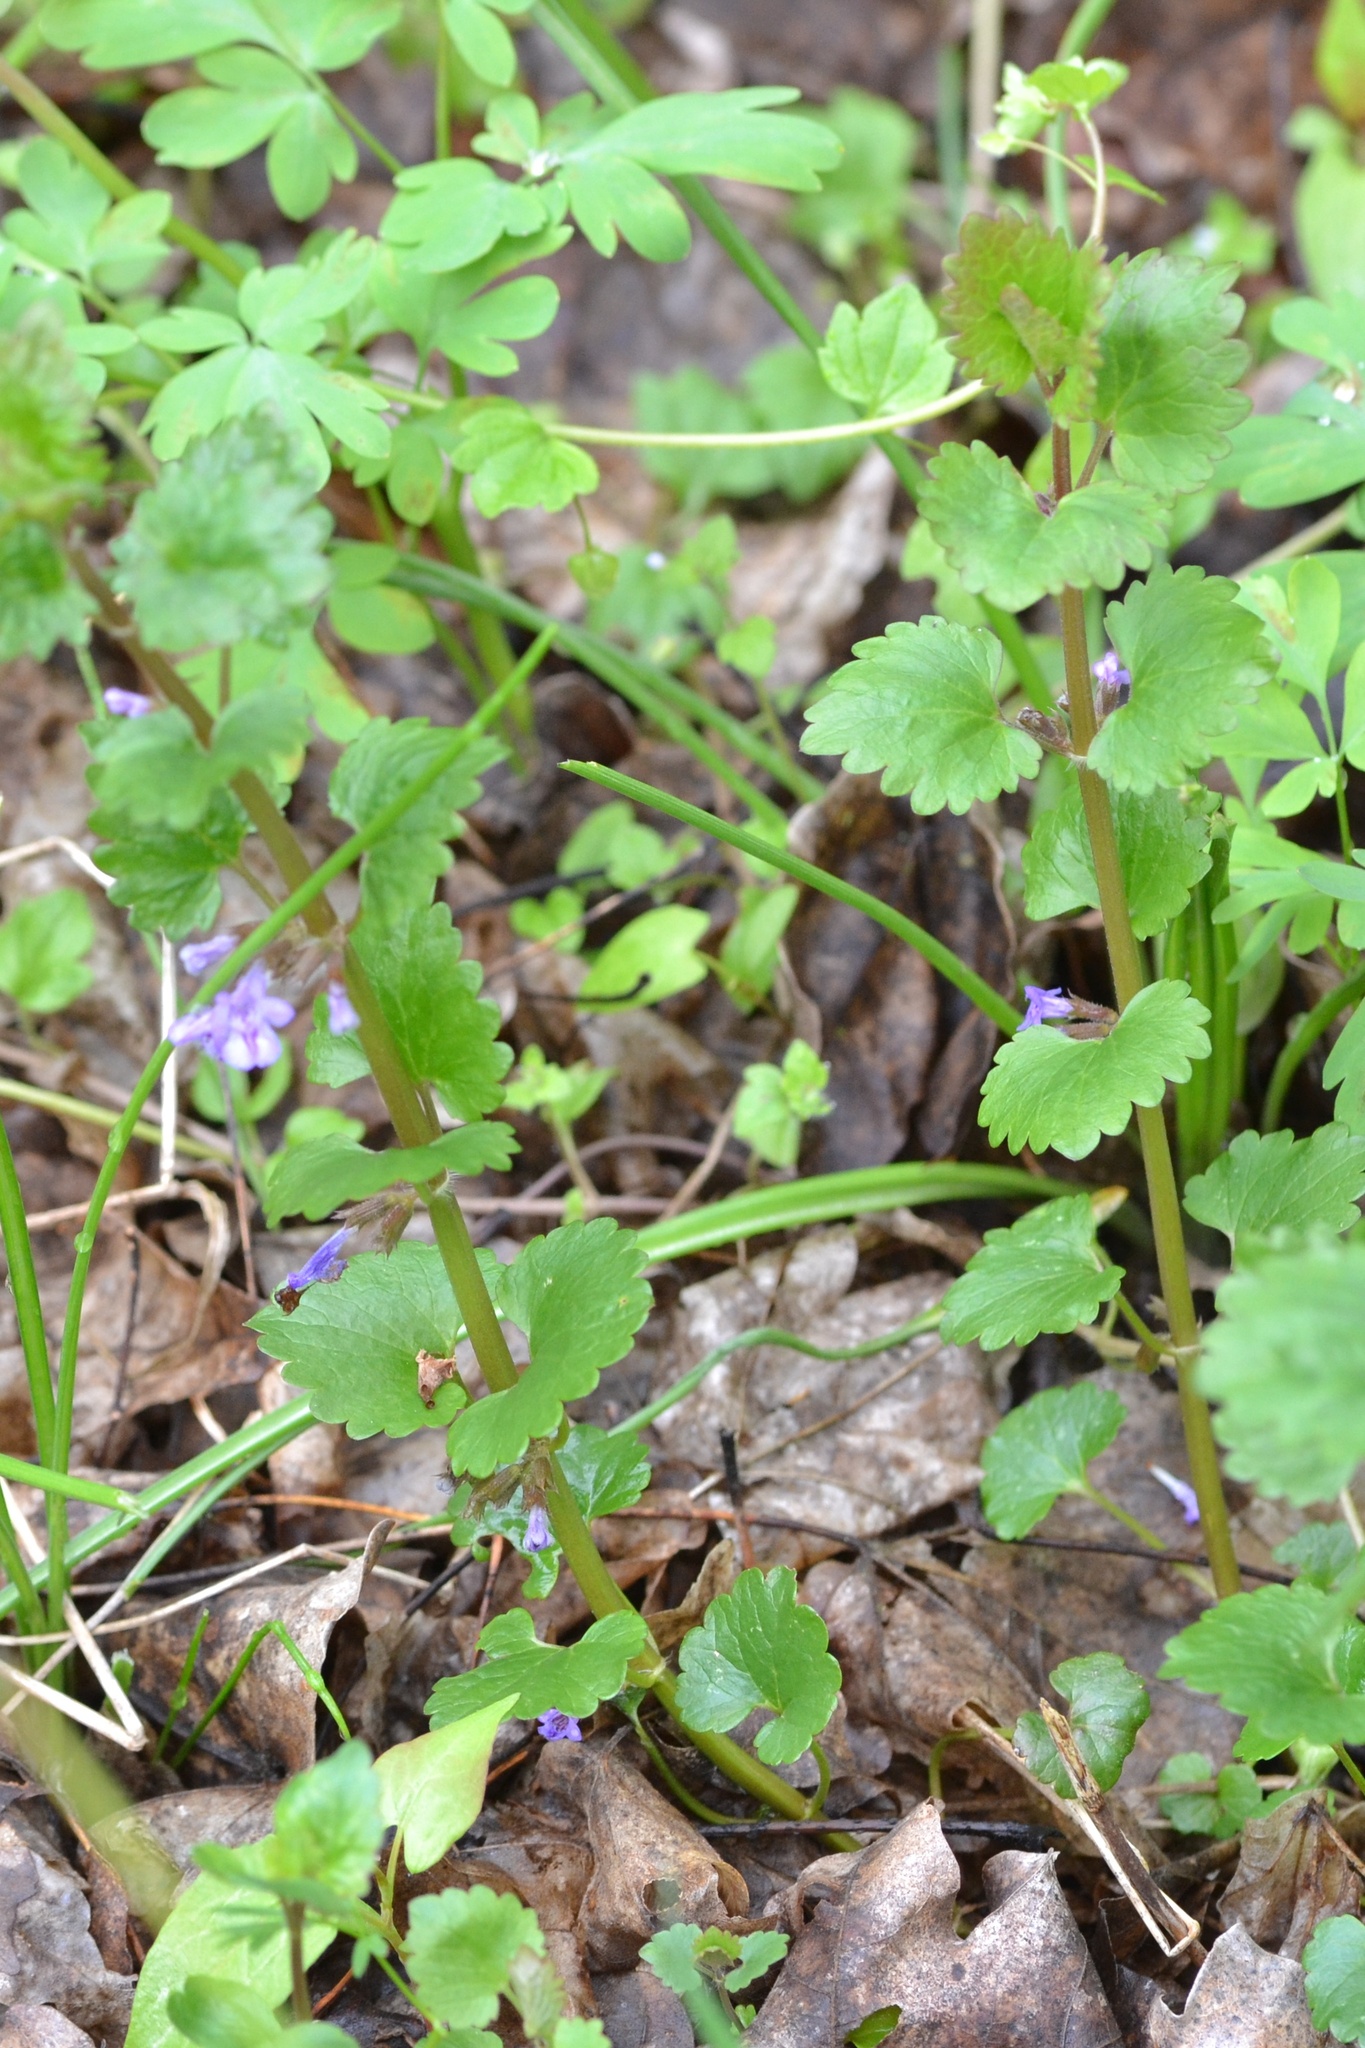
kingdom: Plantae
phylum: Tracheophyta
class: Magnoliopsida
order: Lamiales
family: Lamiaceae
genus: Glechoma
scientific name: Glechoma hederacea
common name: Ground ivy
